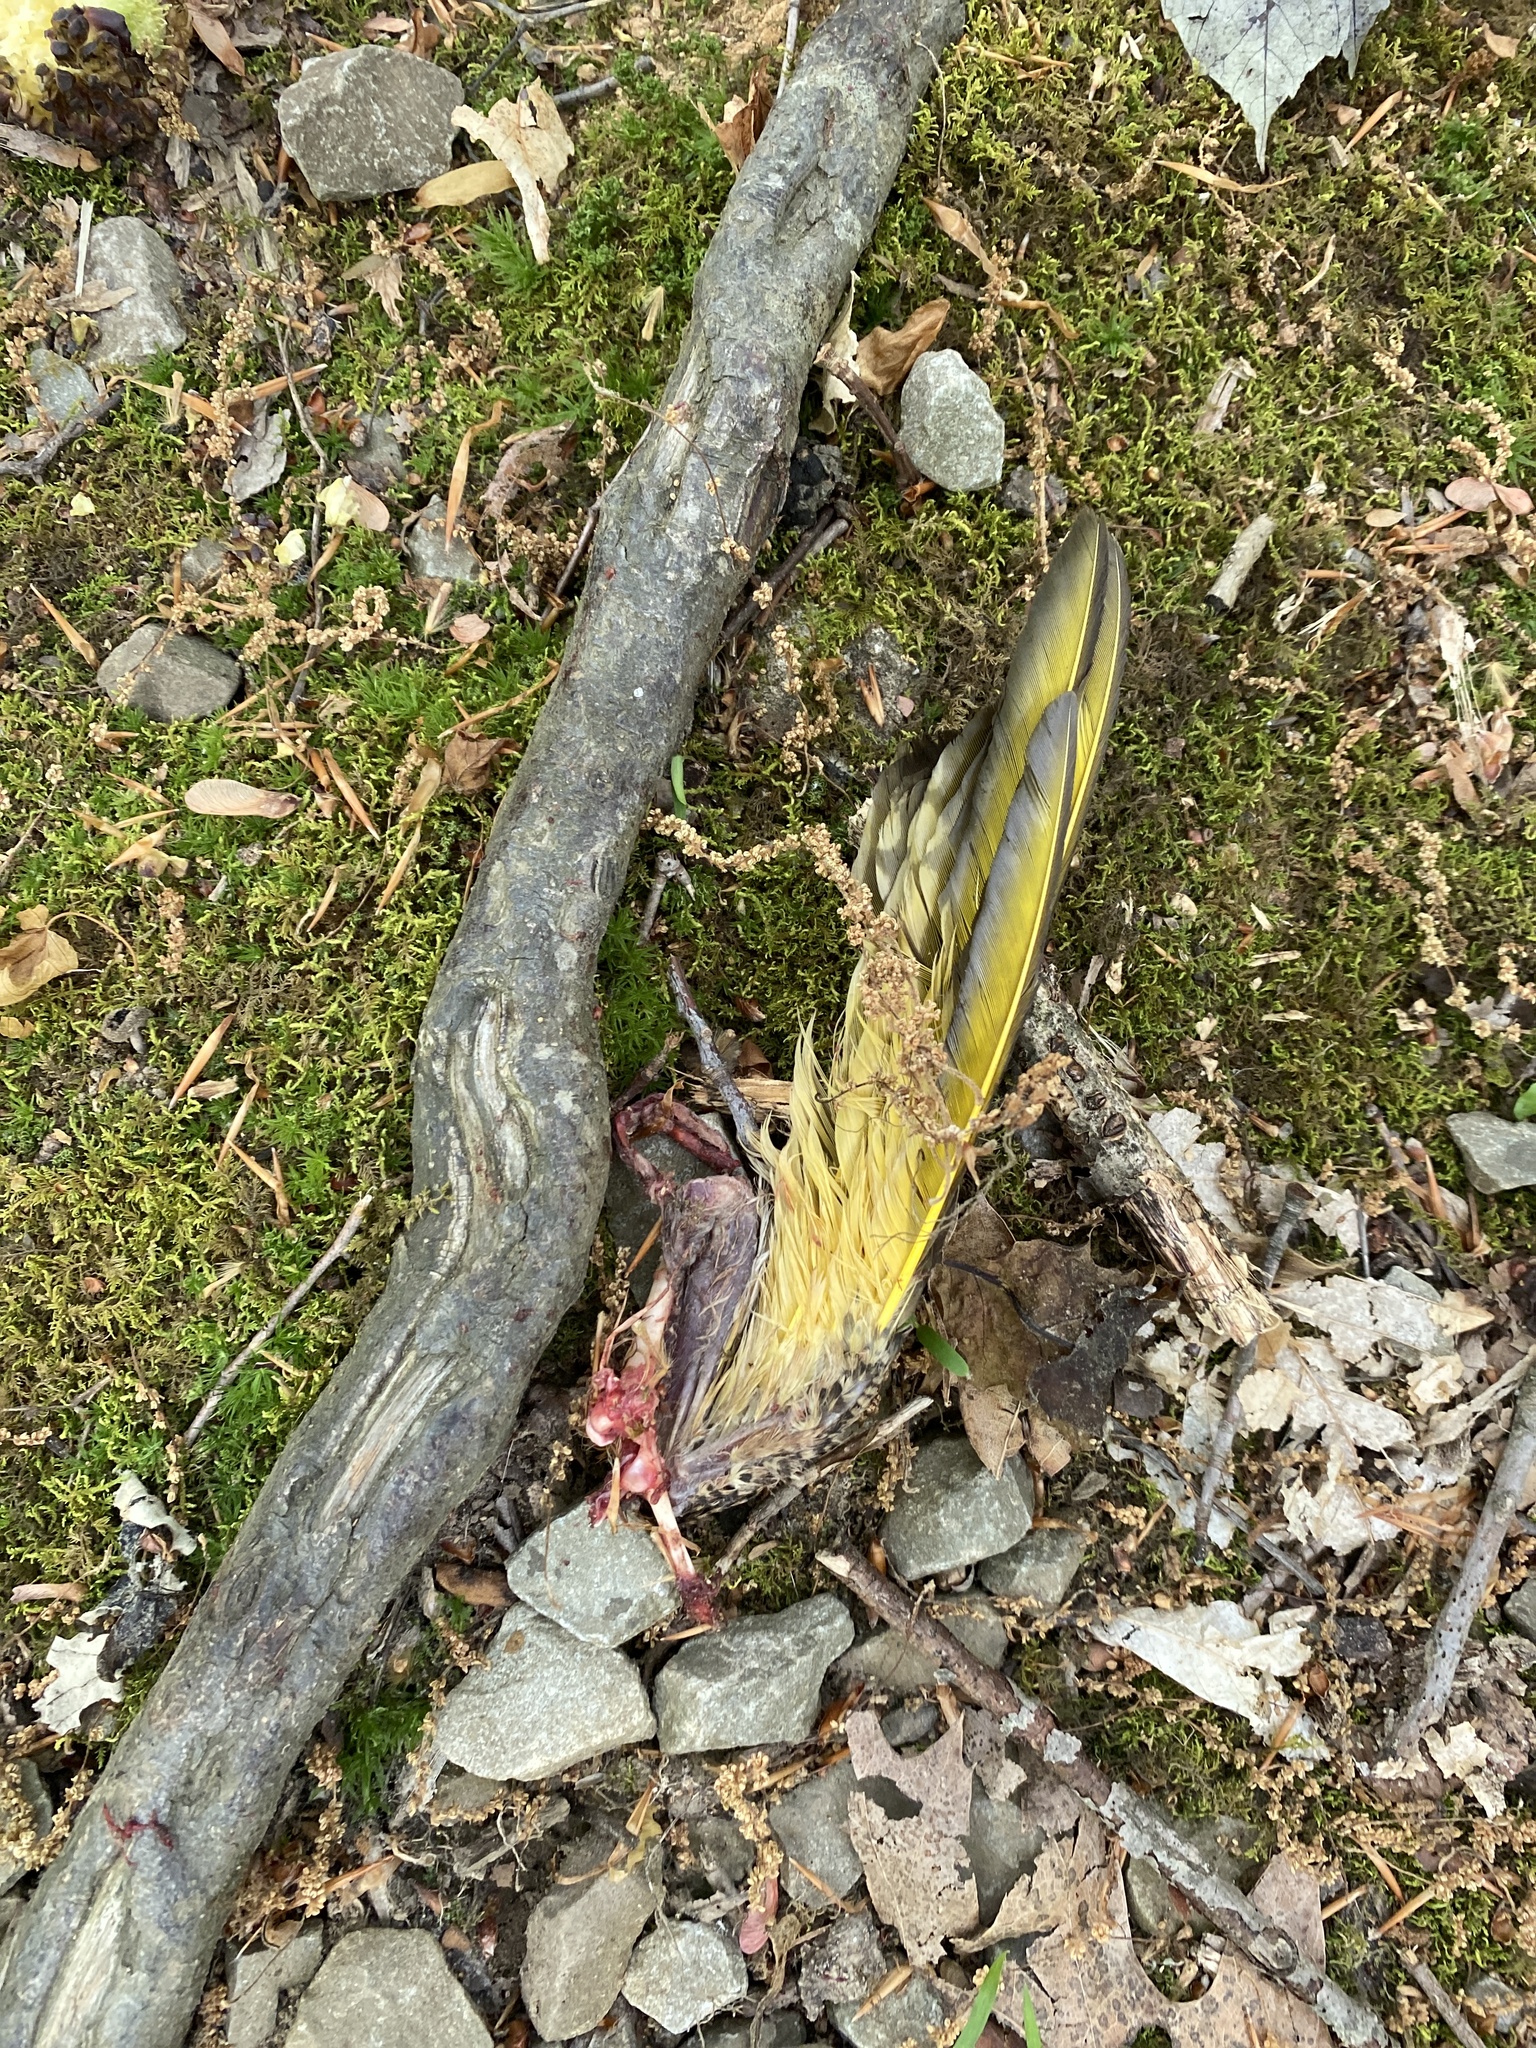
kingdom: Animalia
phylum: Chordata
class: Aves
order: Piciformes
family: Picidae
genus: Colaptes
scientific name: Colaptes auratus
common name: Northern flicker
